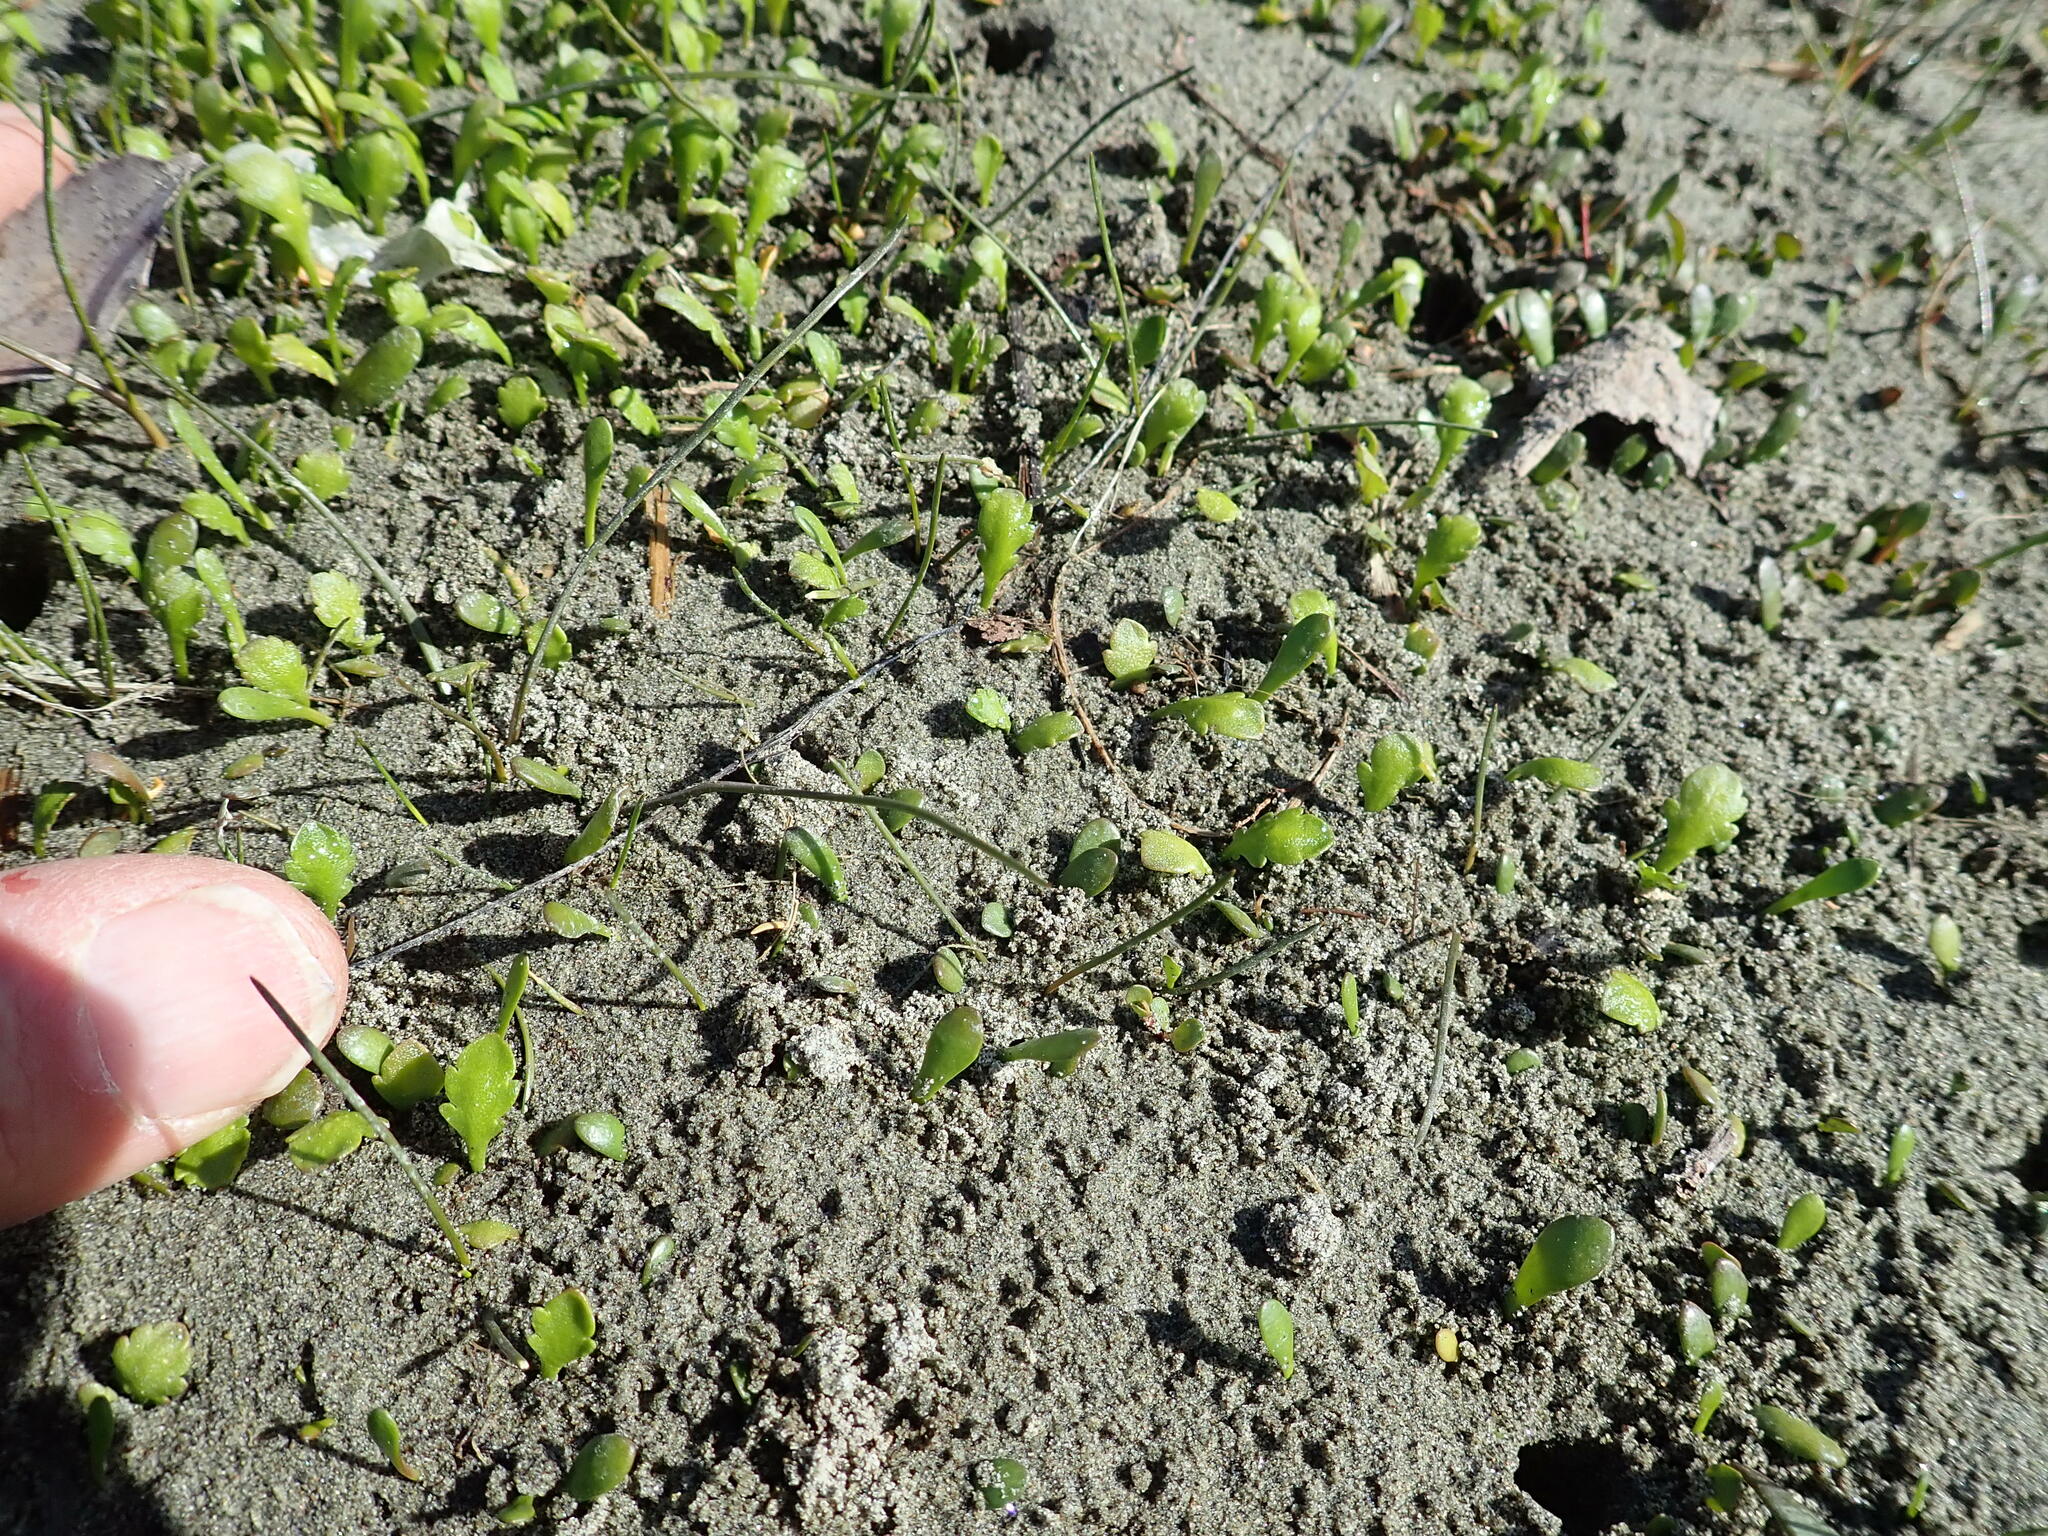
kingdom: Plantae
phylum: Tracheophyta
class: Magnoliopsida
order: Asterales
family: Asteraceae
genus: Leptinella
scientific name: Leptinella dioica
